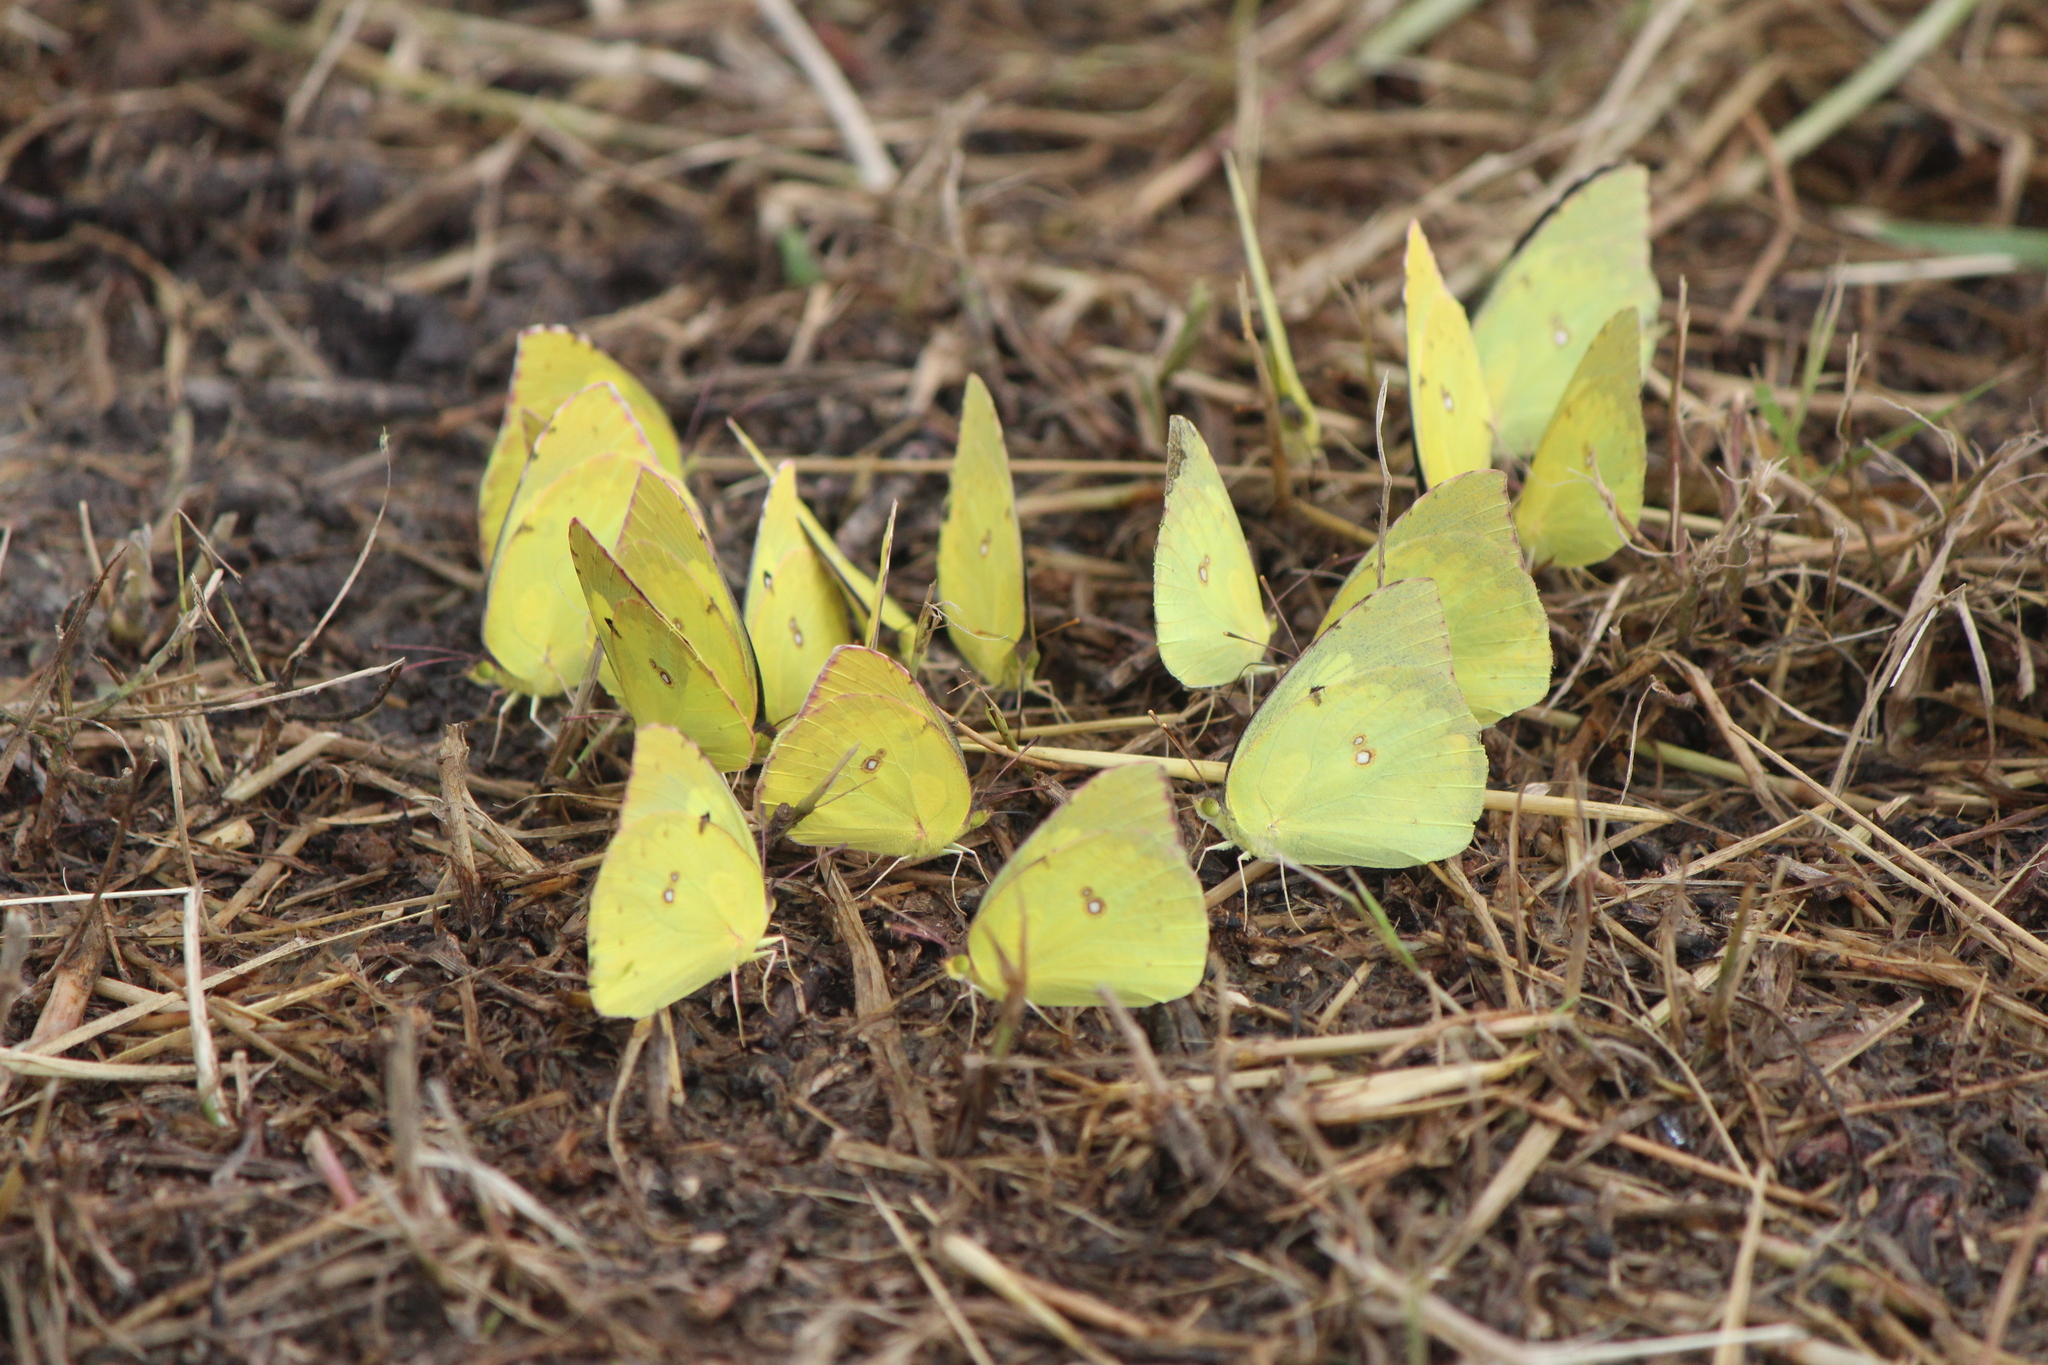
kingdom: Animalia
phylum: Arthropoda
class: Insecta
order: Lepidoptera
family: Pieridae
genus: Zerene
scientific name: Zerene cesonia
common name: Southern dogface
